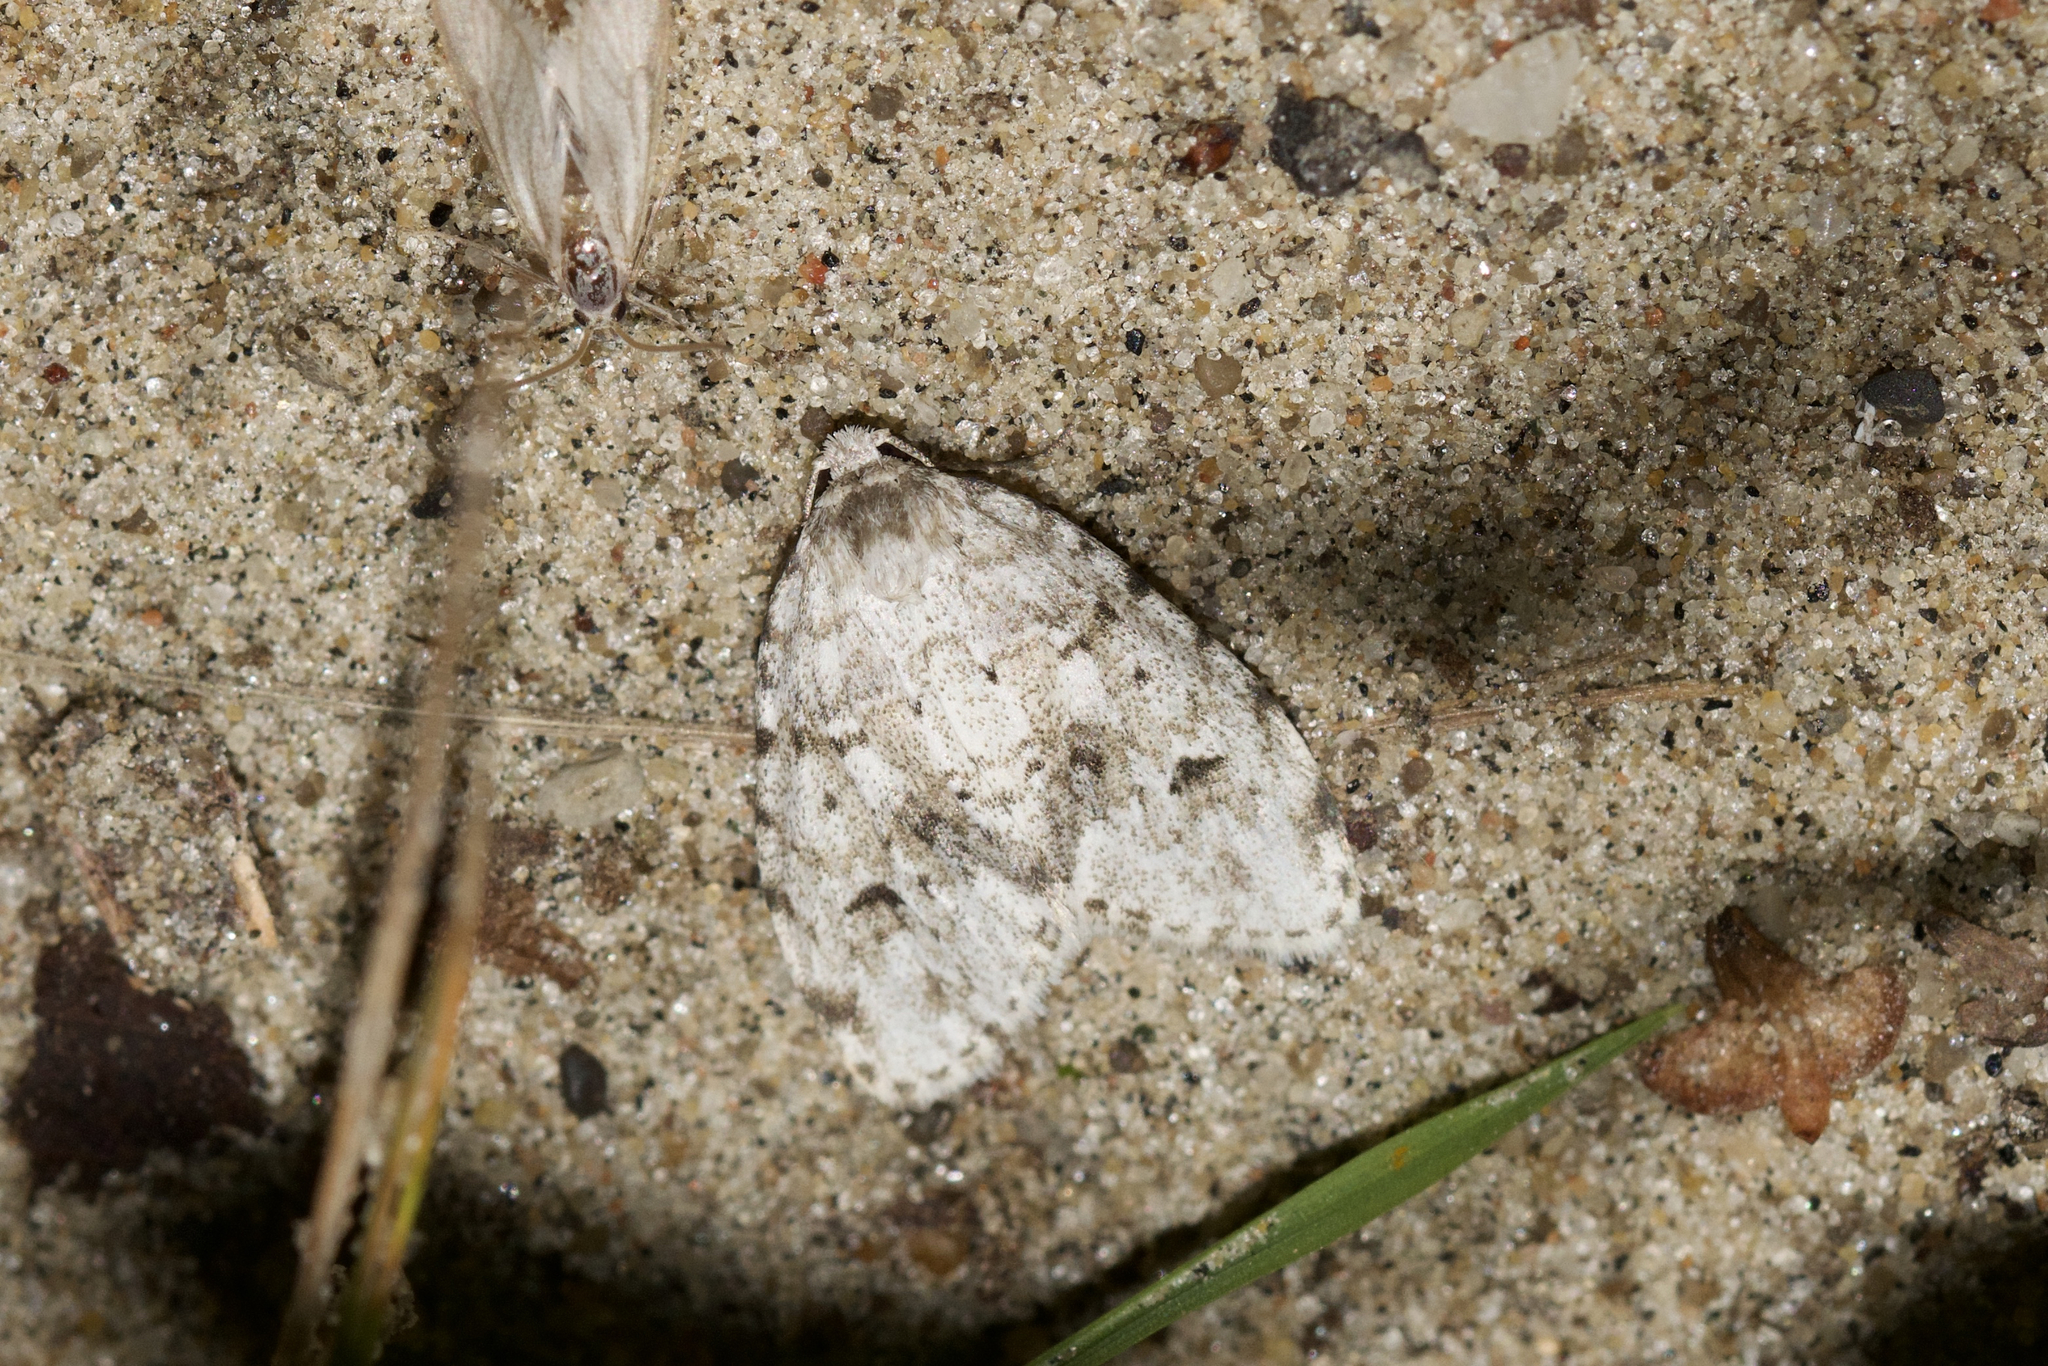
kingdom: Animalia
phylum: Arthropoda
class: Insecta
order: Lepidoptera
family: Erebidae
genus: Clemensia
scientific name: Clemensia albata
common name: Little white lichen moth
